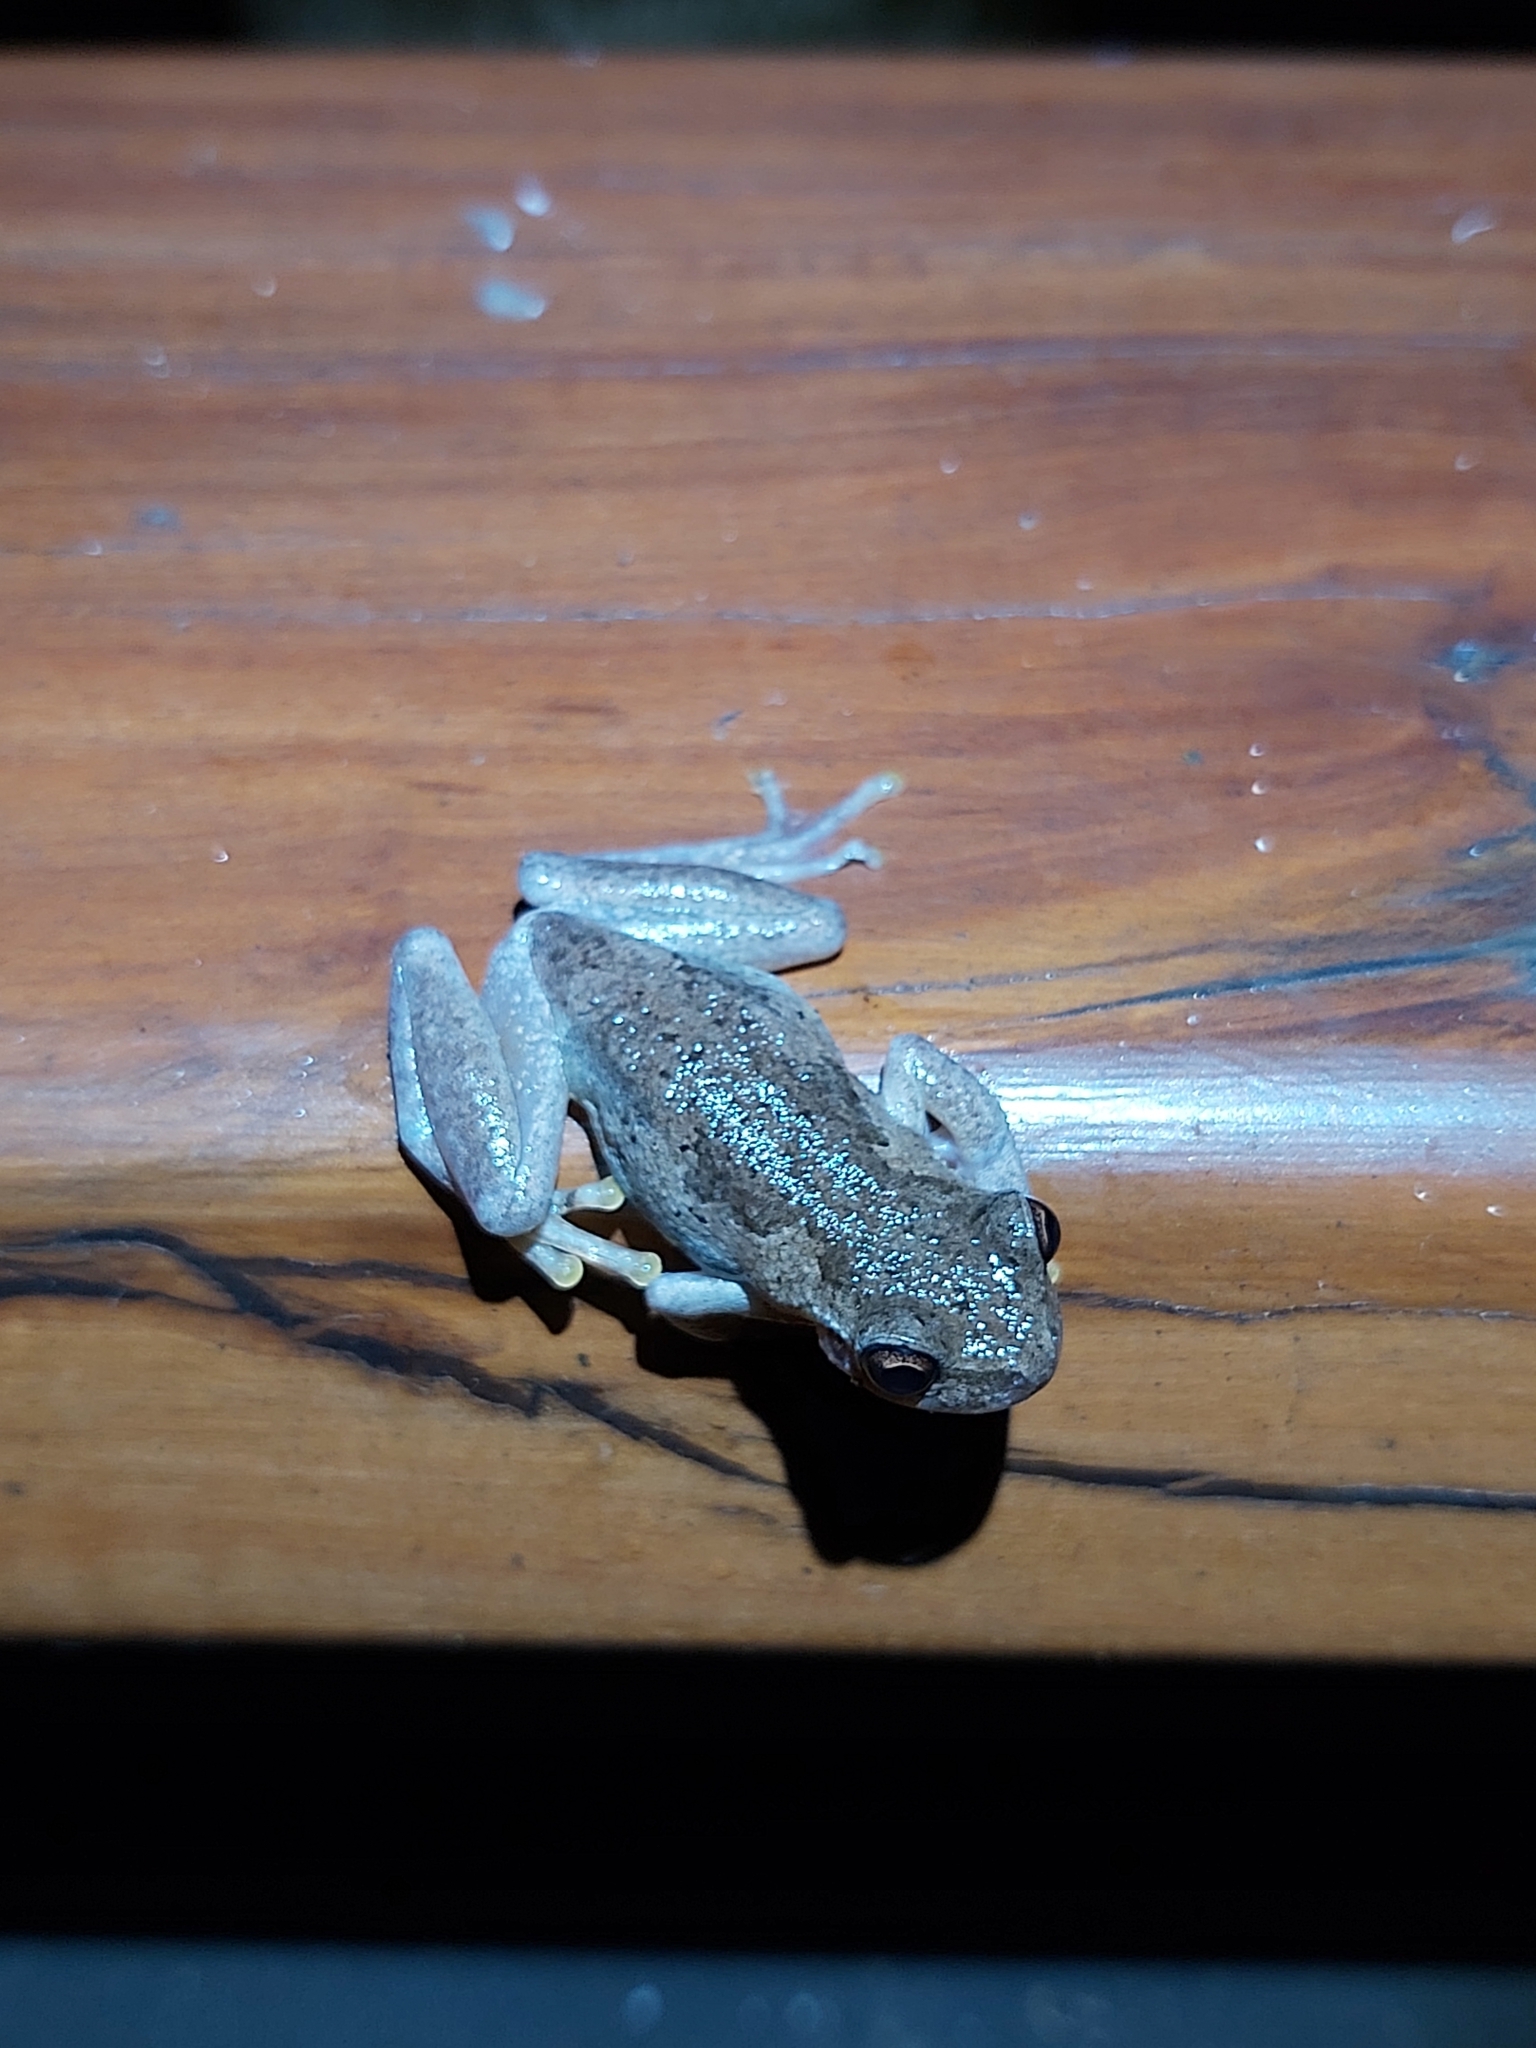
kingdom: Animalia
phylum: Chordata
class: Amphibia
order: Anura
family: Pelodryadidae
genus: Litoria
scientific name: Litoria dentata
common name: Bleating tree frog
